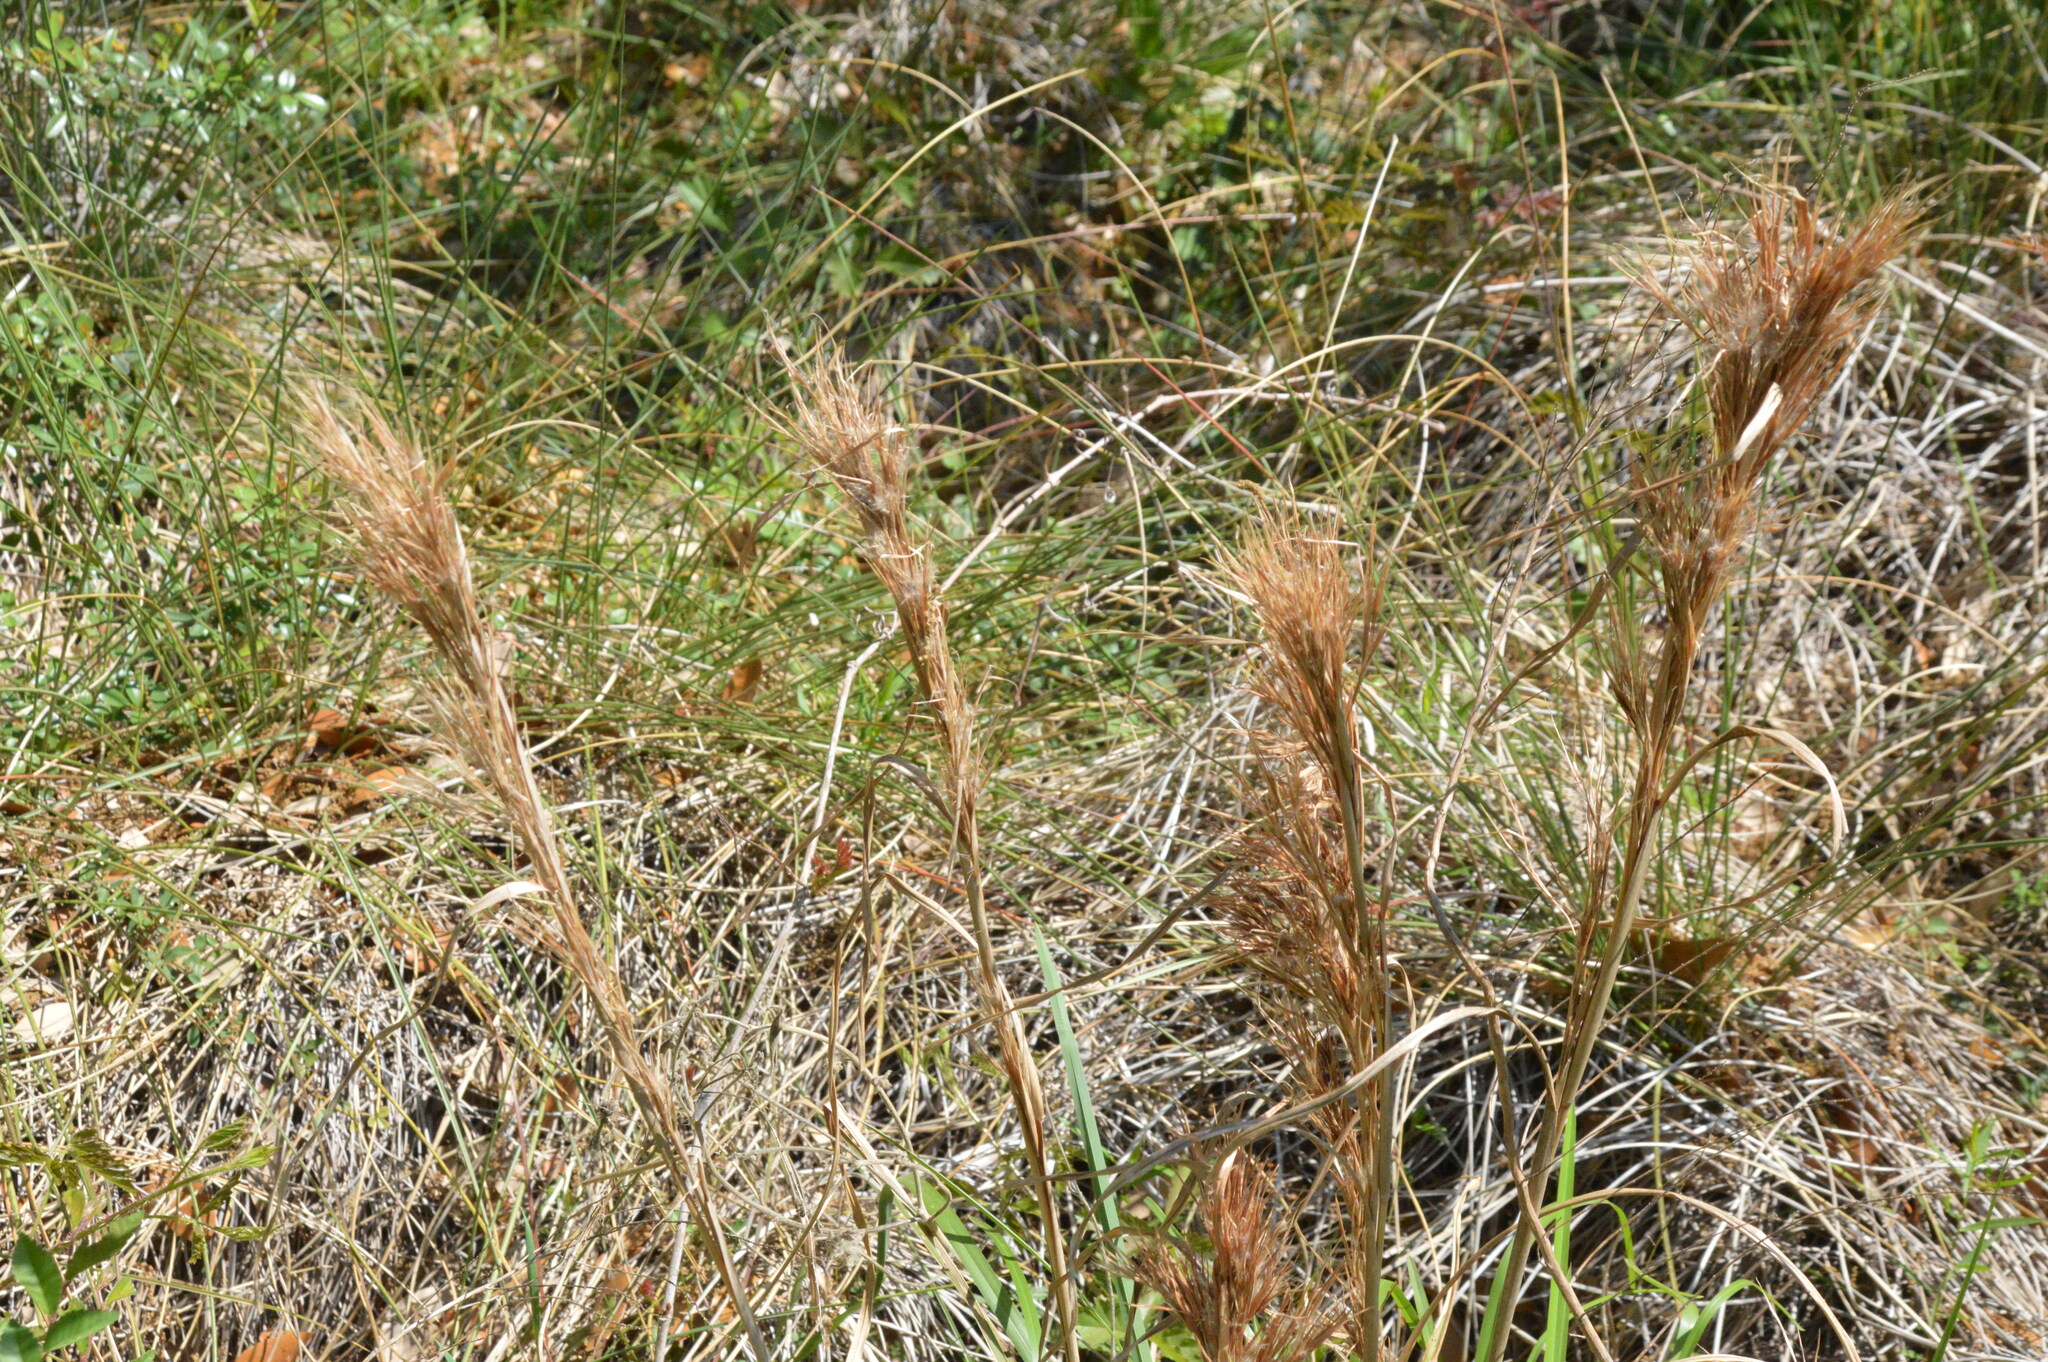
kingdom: Plantae
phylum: Tracheophyta
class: Liliopsida
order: Poales
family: Poaceae
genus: Andropogon
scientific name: Andropogon tenuispatheus
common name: Bushy bluestem
